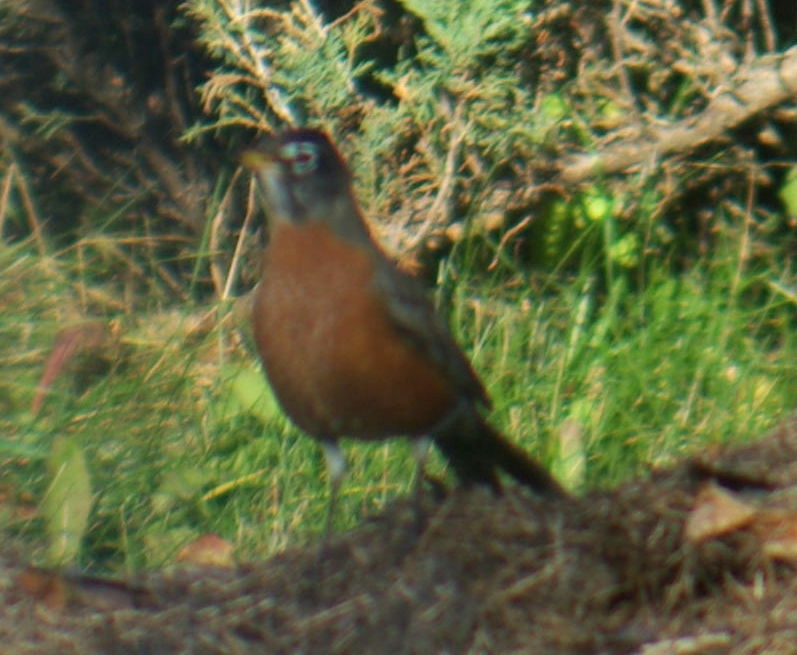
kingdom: Animalia
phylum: Chordata
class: Aves
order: Passeriformes
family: Turdidae
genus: Turdus
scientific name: Turdus migratorius
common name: American robin
